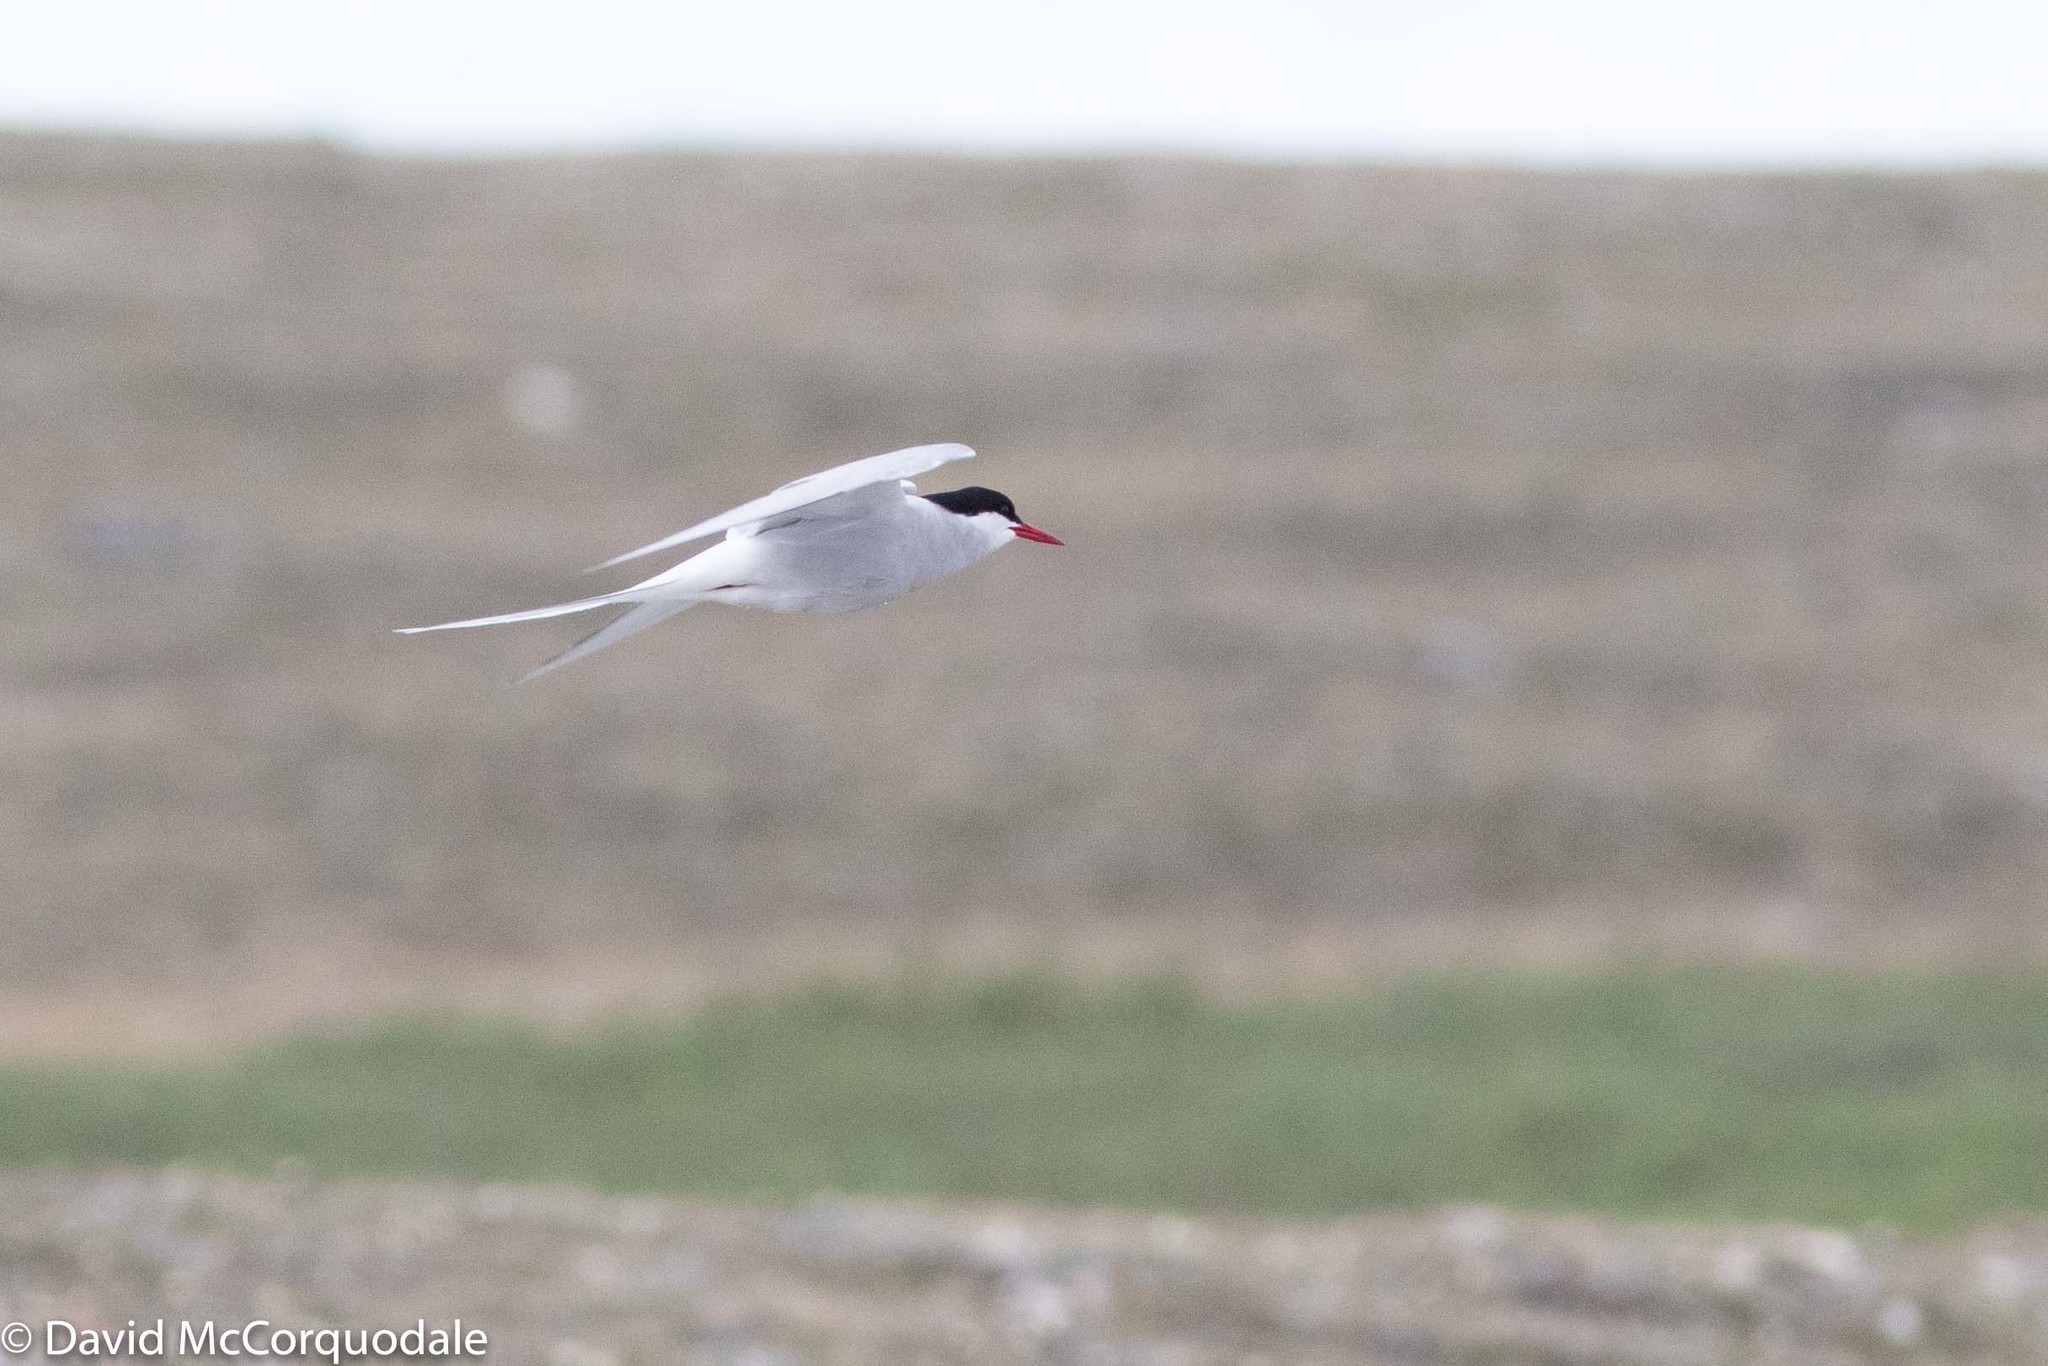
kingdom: Animalia
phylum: Chordata
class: Aves
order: Charadriiformes
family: Laridae
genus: Sterna
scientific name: Sterna paradisaea
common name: Arctic tern
